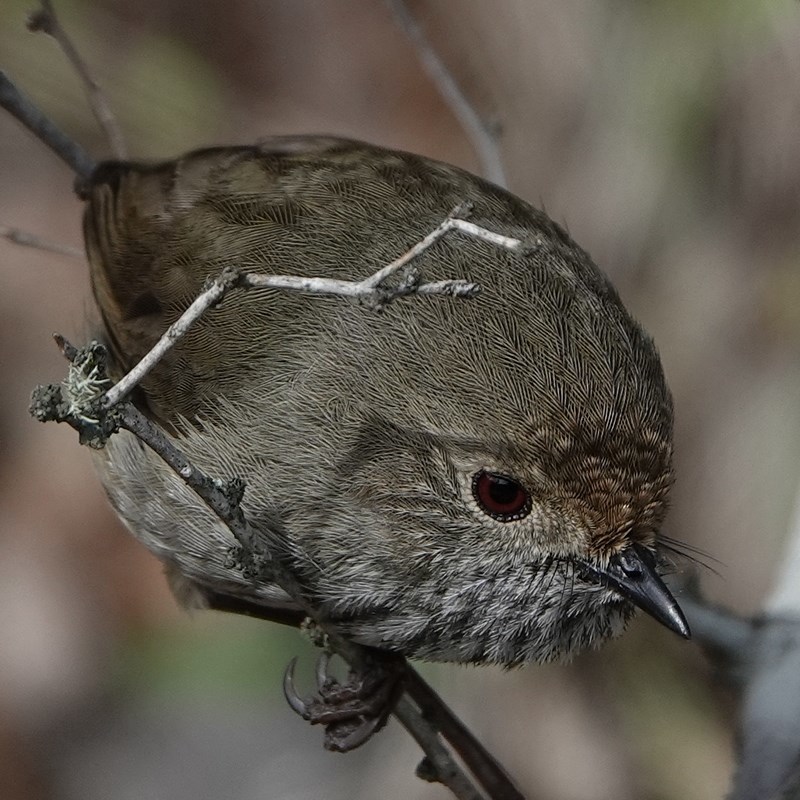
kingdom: Animalia
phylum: Chordata
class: Aves
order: Passeriformes
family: Acanthizidae
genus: Acanthiza
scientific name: Acanthiza pusilla
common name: Brown thornbill
